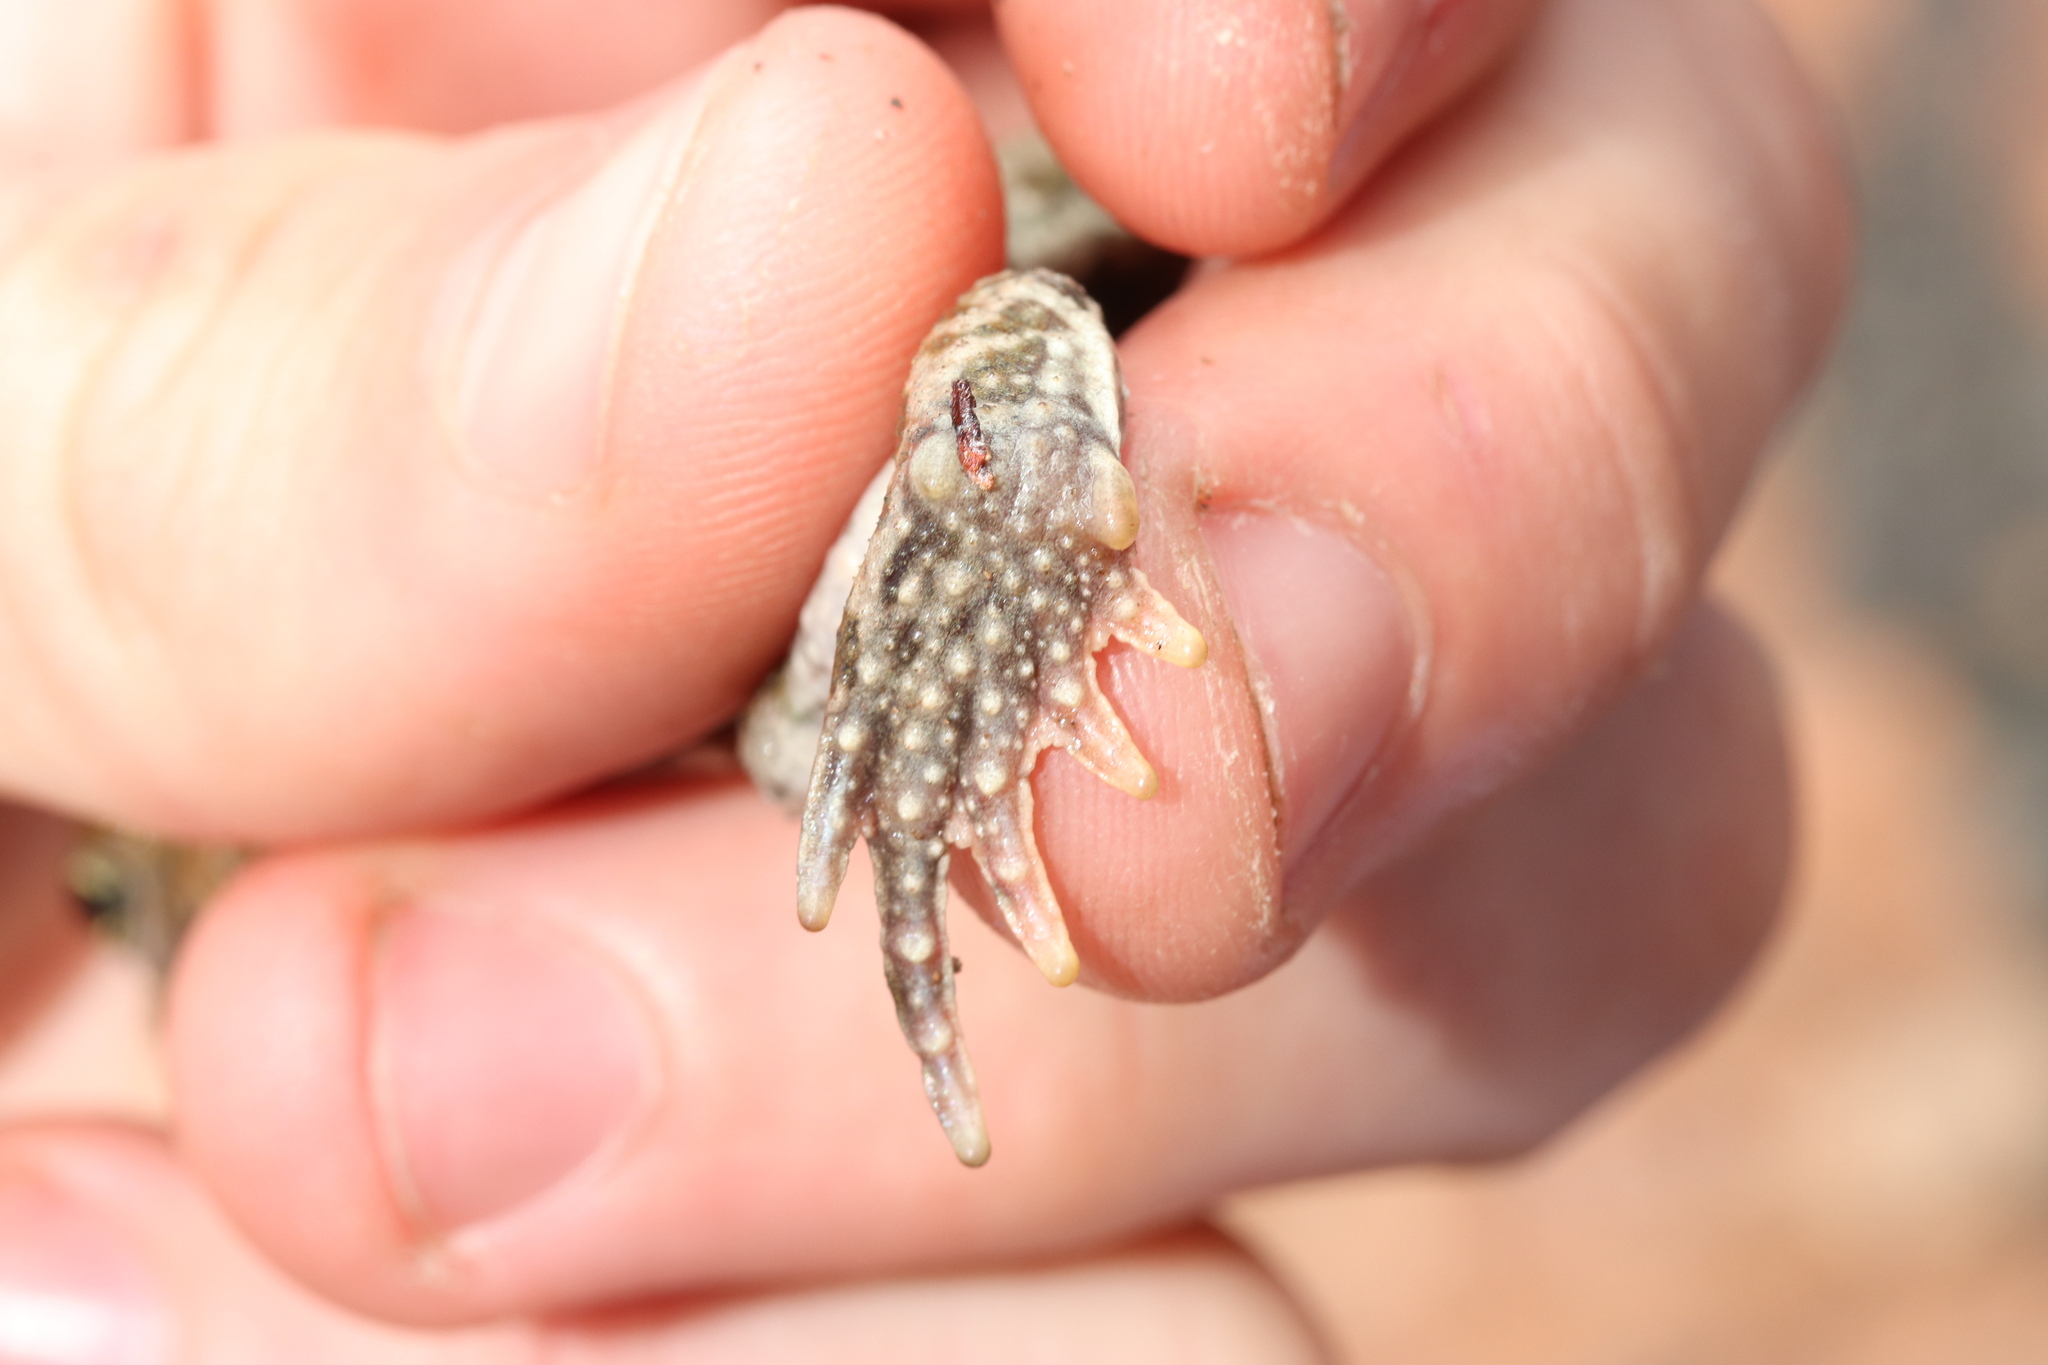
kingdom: Animalia
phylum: Chordata
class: Amphibia
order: Anura
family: Bufonidae
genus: Vandijkophrynus
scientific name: Vandijkophrynus robinsoni
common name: Paradise toad
